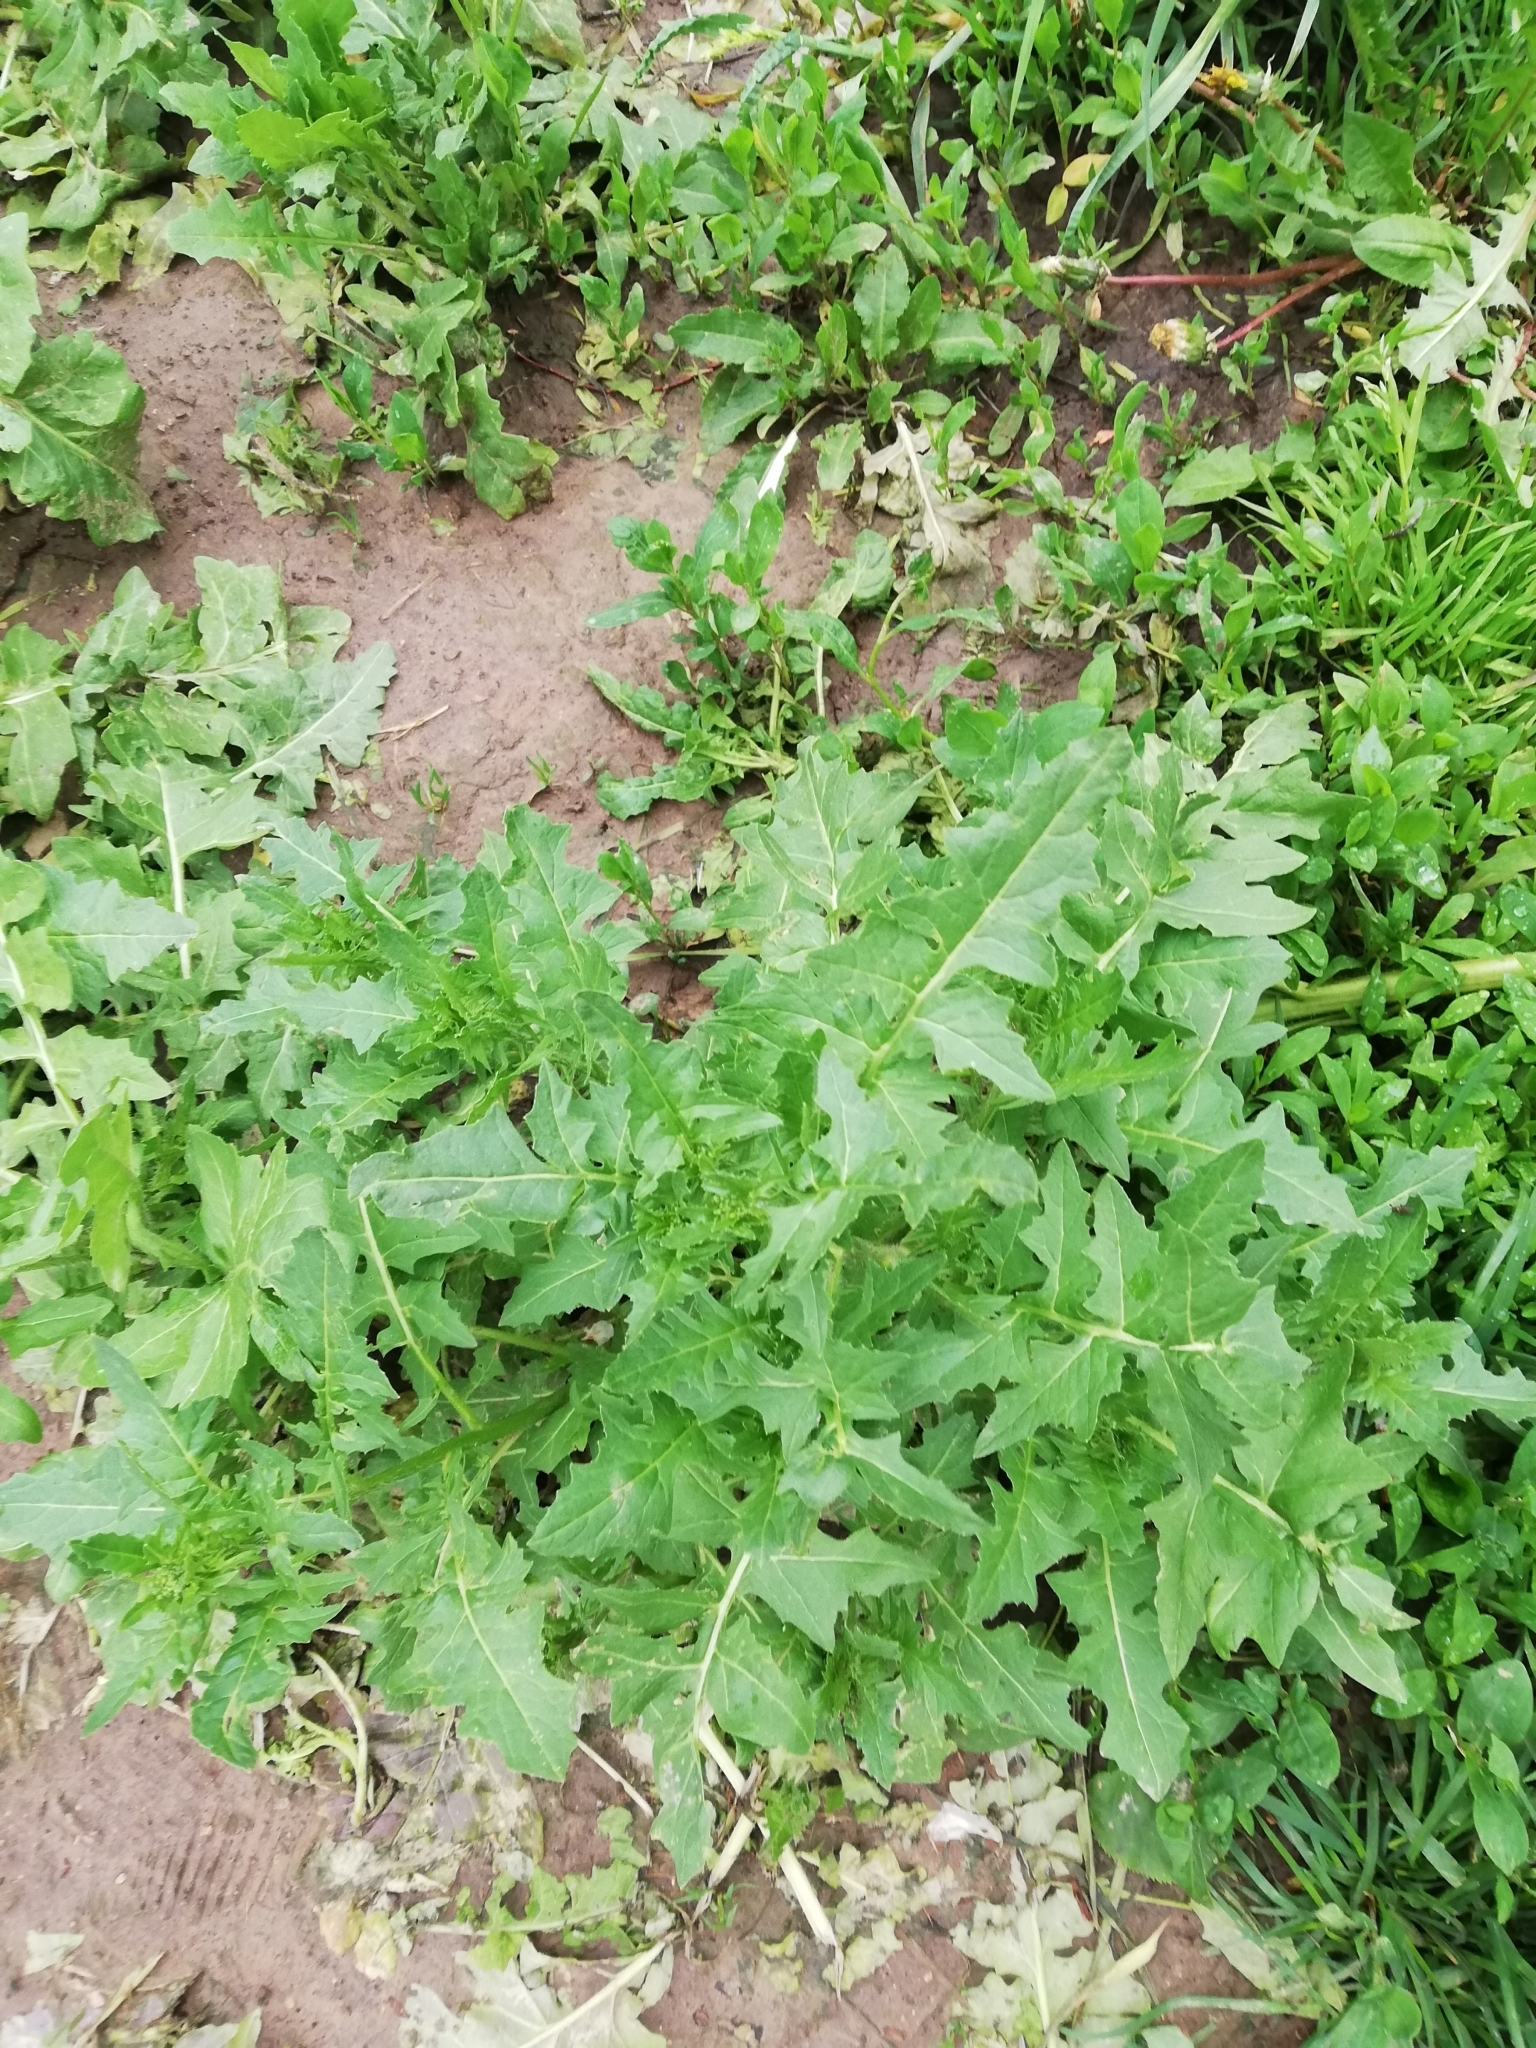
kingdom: Plantae
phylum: Tracheophyta
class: Magnoliopsida
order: Brassicales
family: Brassicaceae
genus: Sisymbrium
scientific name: Sisymbrium loeselii
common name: False london-rocket
